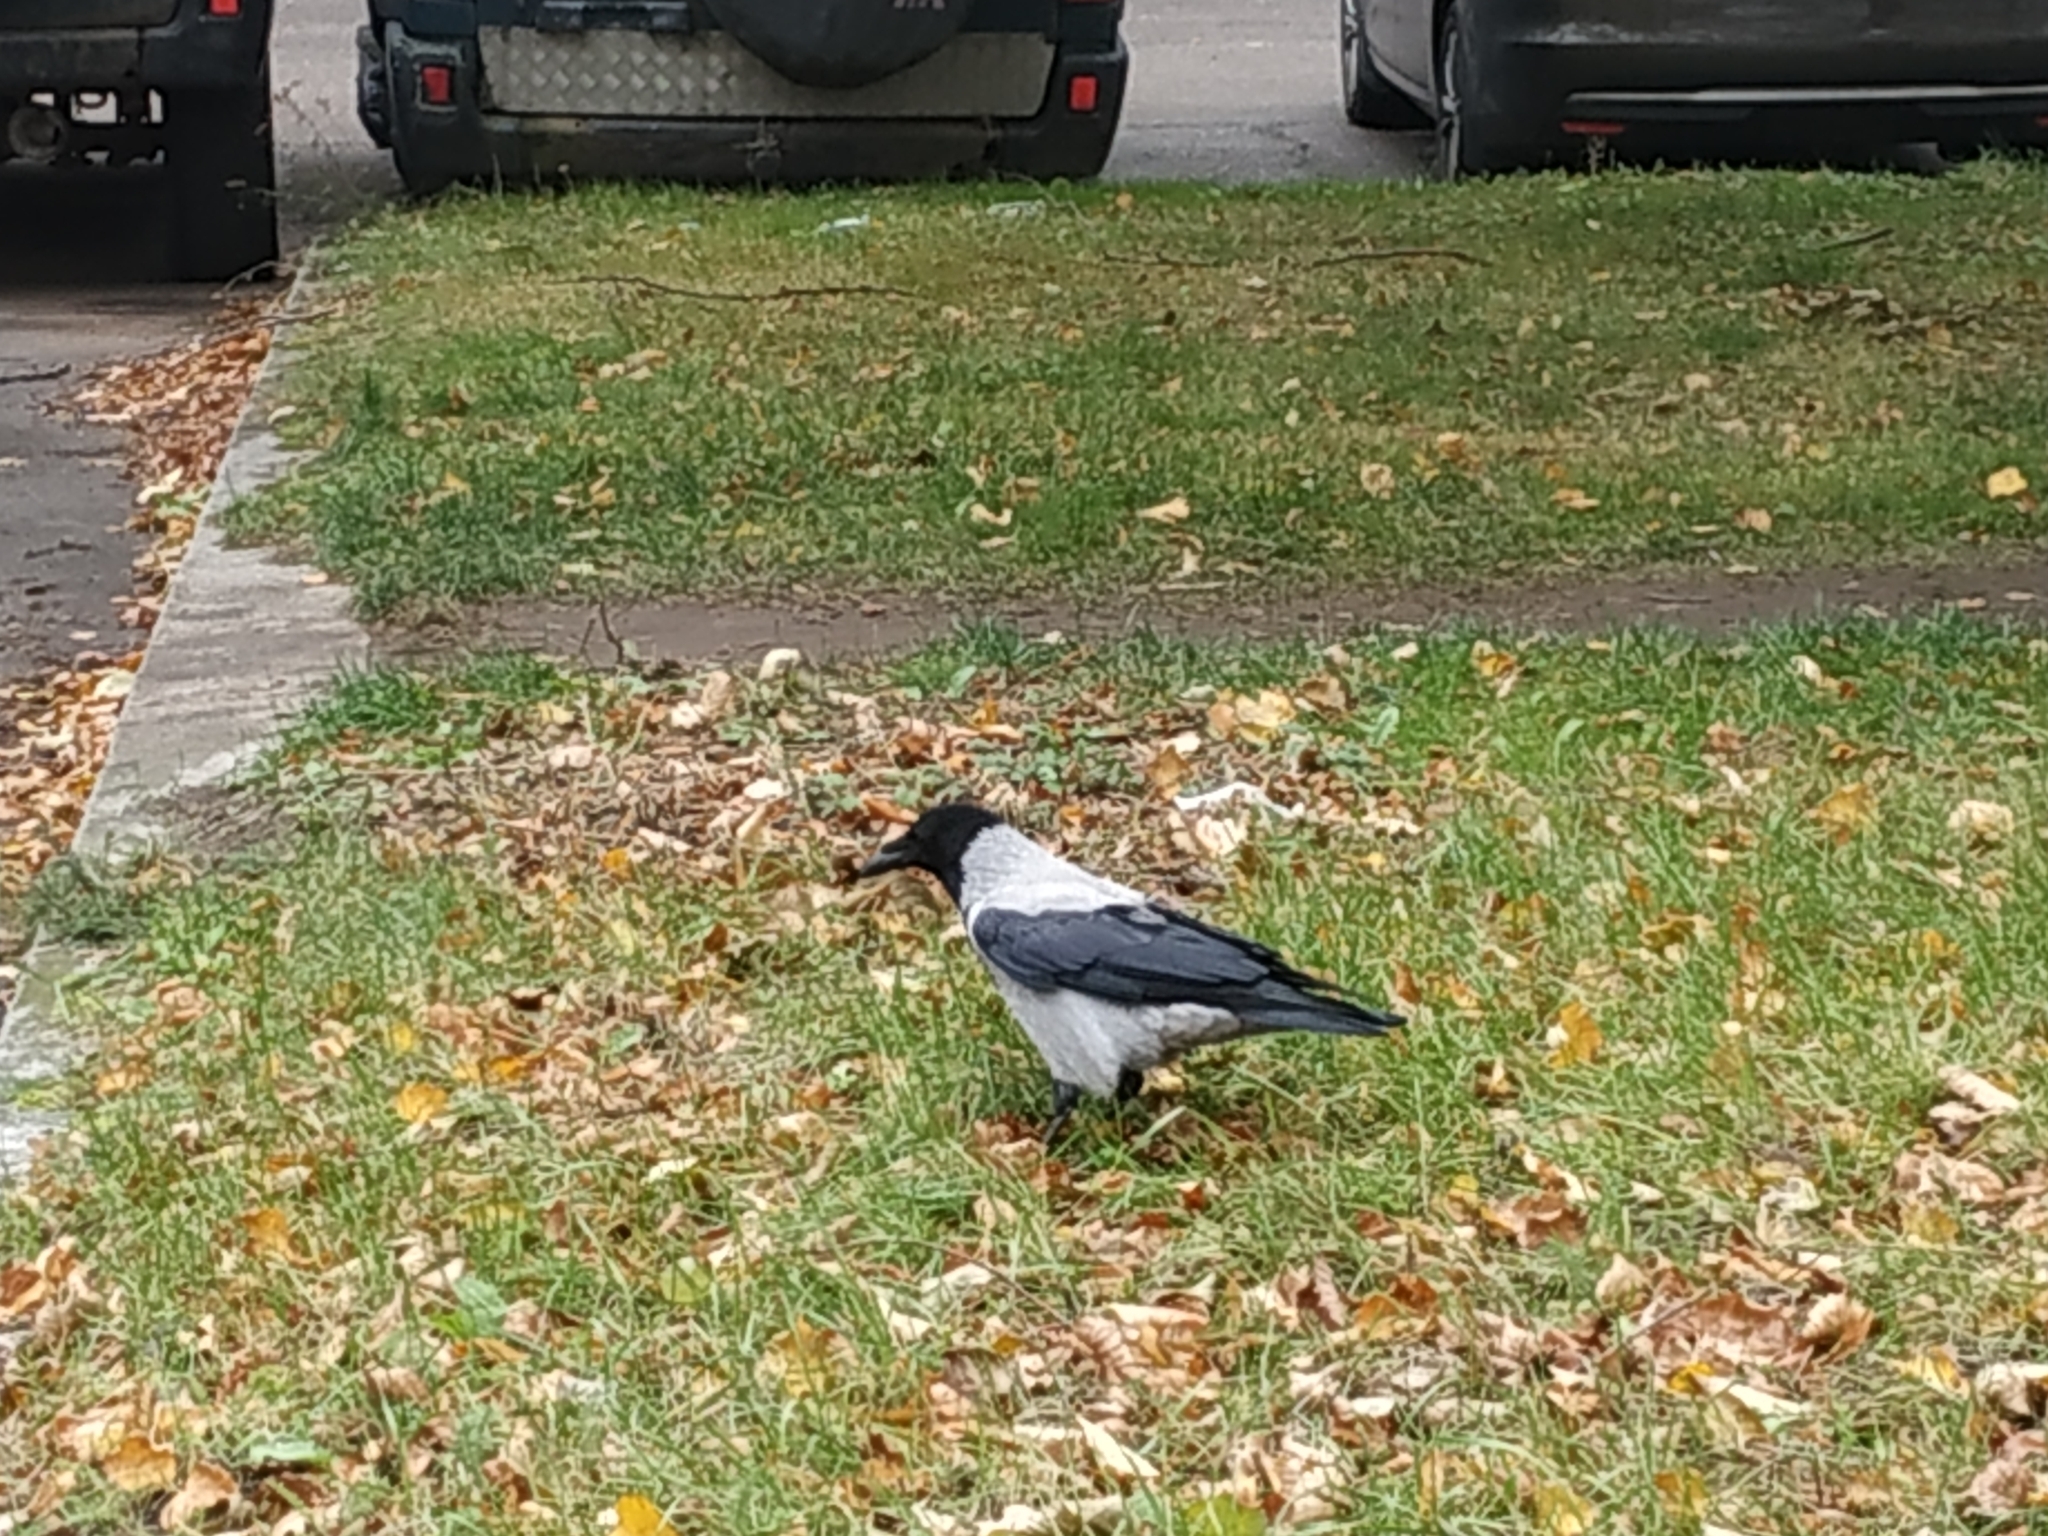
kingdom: Animalia
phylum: Chordata
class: Aves
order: Passeriformes
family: Corvidae
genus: Corvus
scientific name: Corvus cornix
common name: Hooded crow
